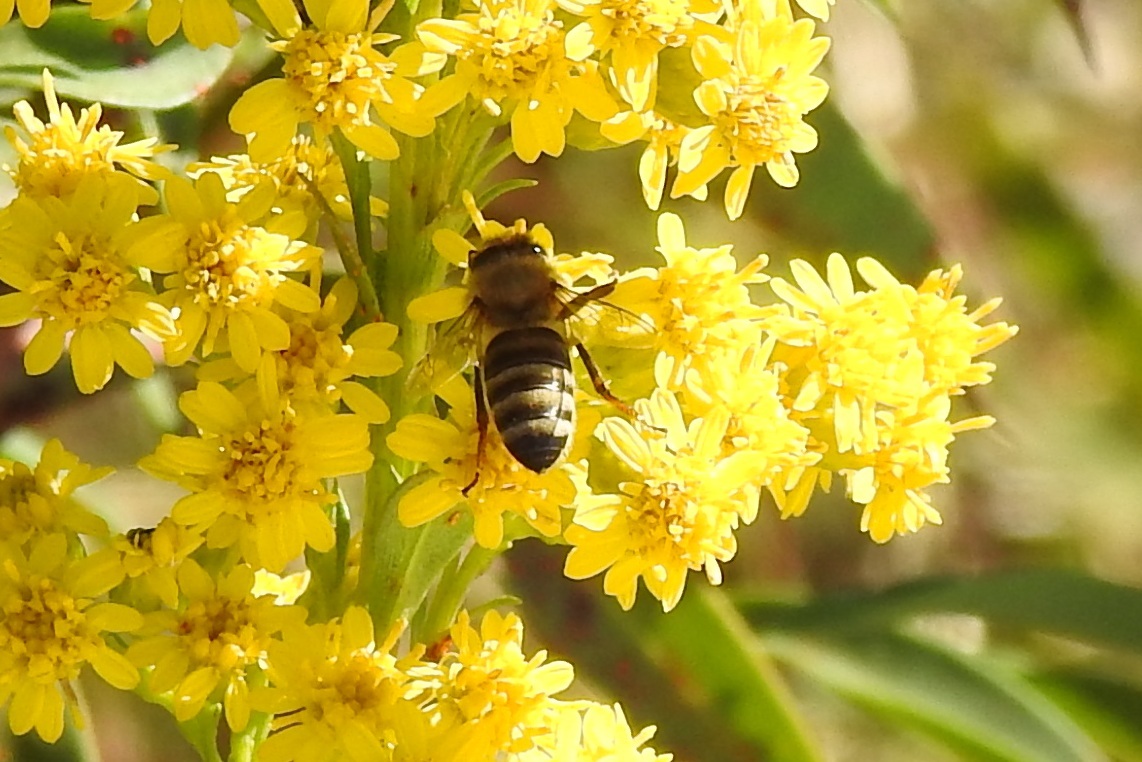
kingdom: Animalia
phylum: Arthropoda
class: Insecta
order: Hymenoptera
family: Apidae
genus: Apis
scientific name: Apis mellifera
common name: Honey bee
